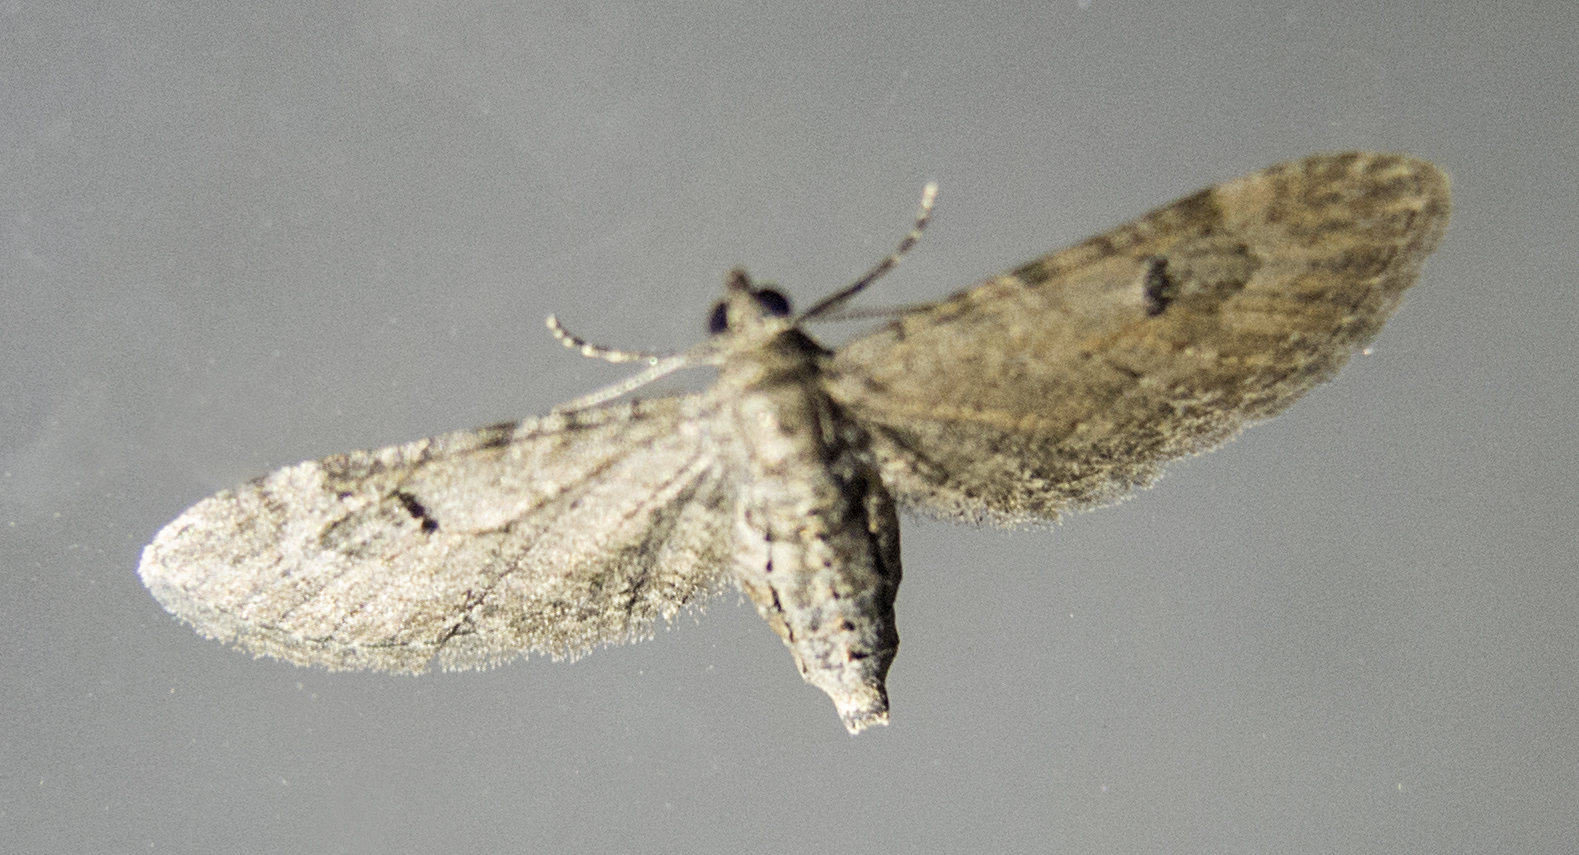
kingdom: Animalia
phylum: Arthropoda
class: Insecta
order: Lepidoptera
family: Geometridae
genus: Eupithecia
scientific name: Eupithecia innotata
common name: Angle-barred pug
